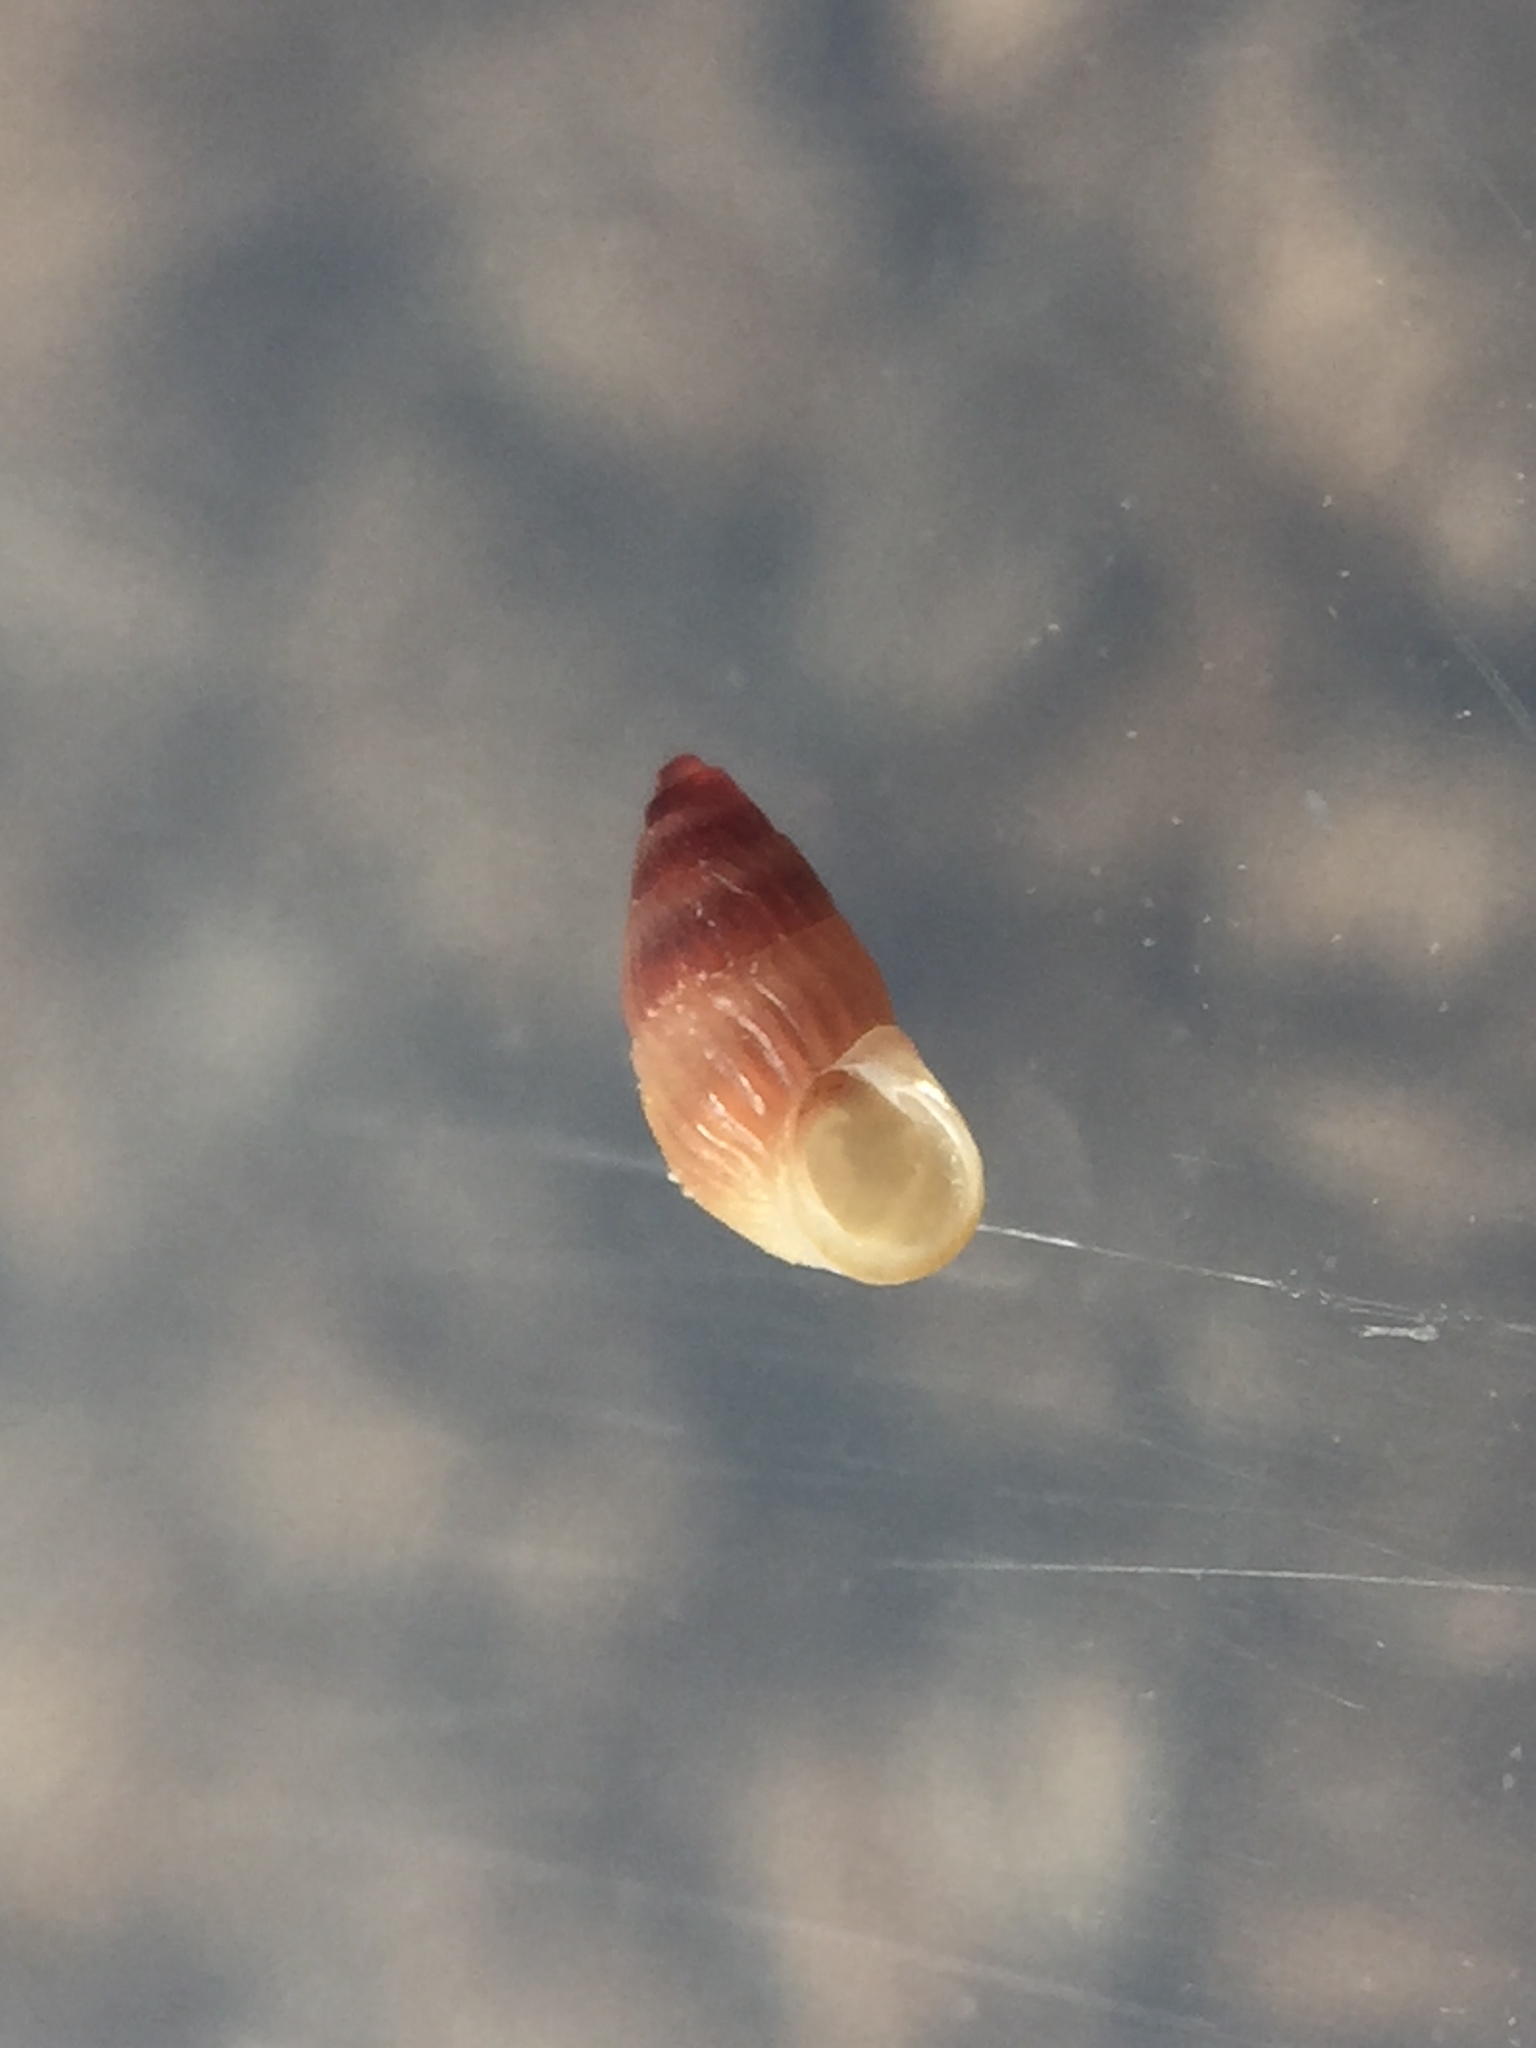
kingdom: Animalia
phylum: Mollusca
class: Gastropoda
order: Littorinimorpha
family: Anabathridae
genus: Pisinna
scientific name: Pisinna
